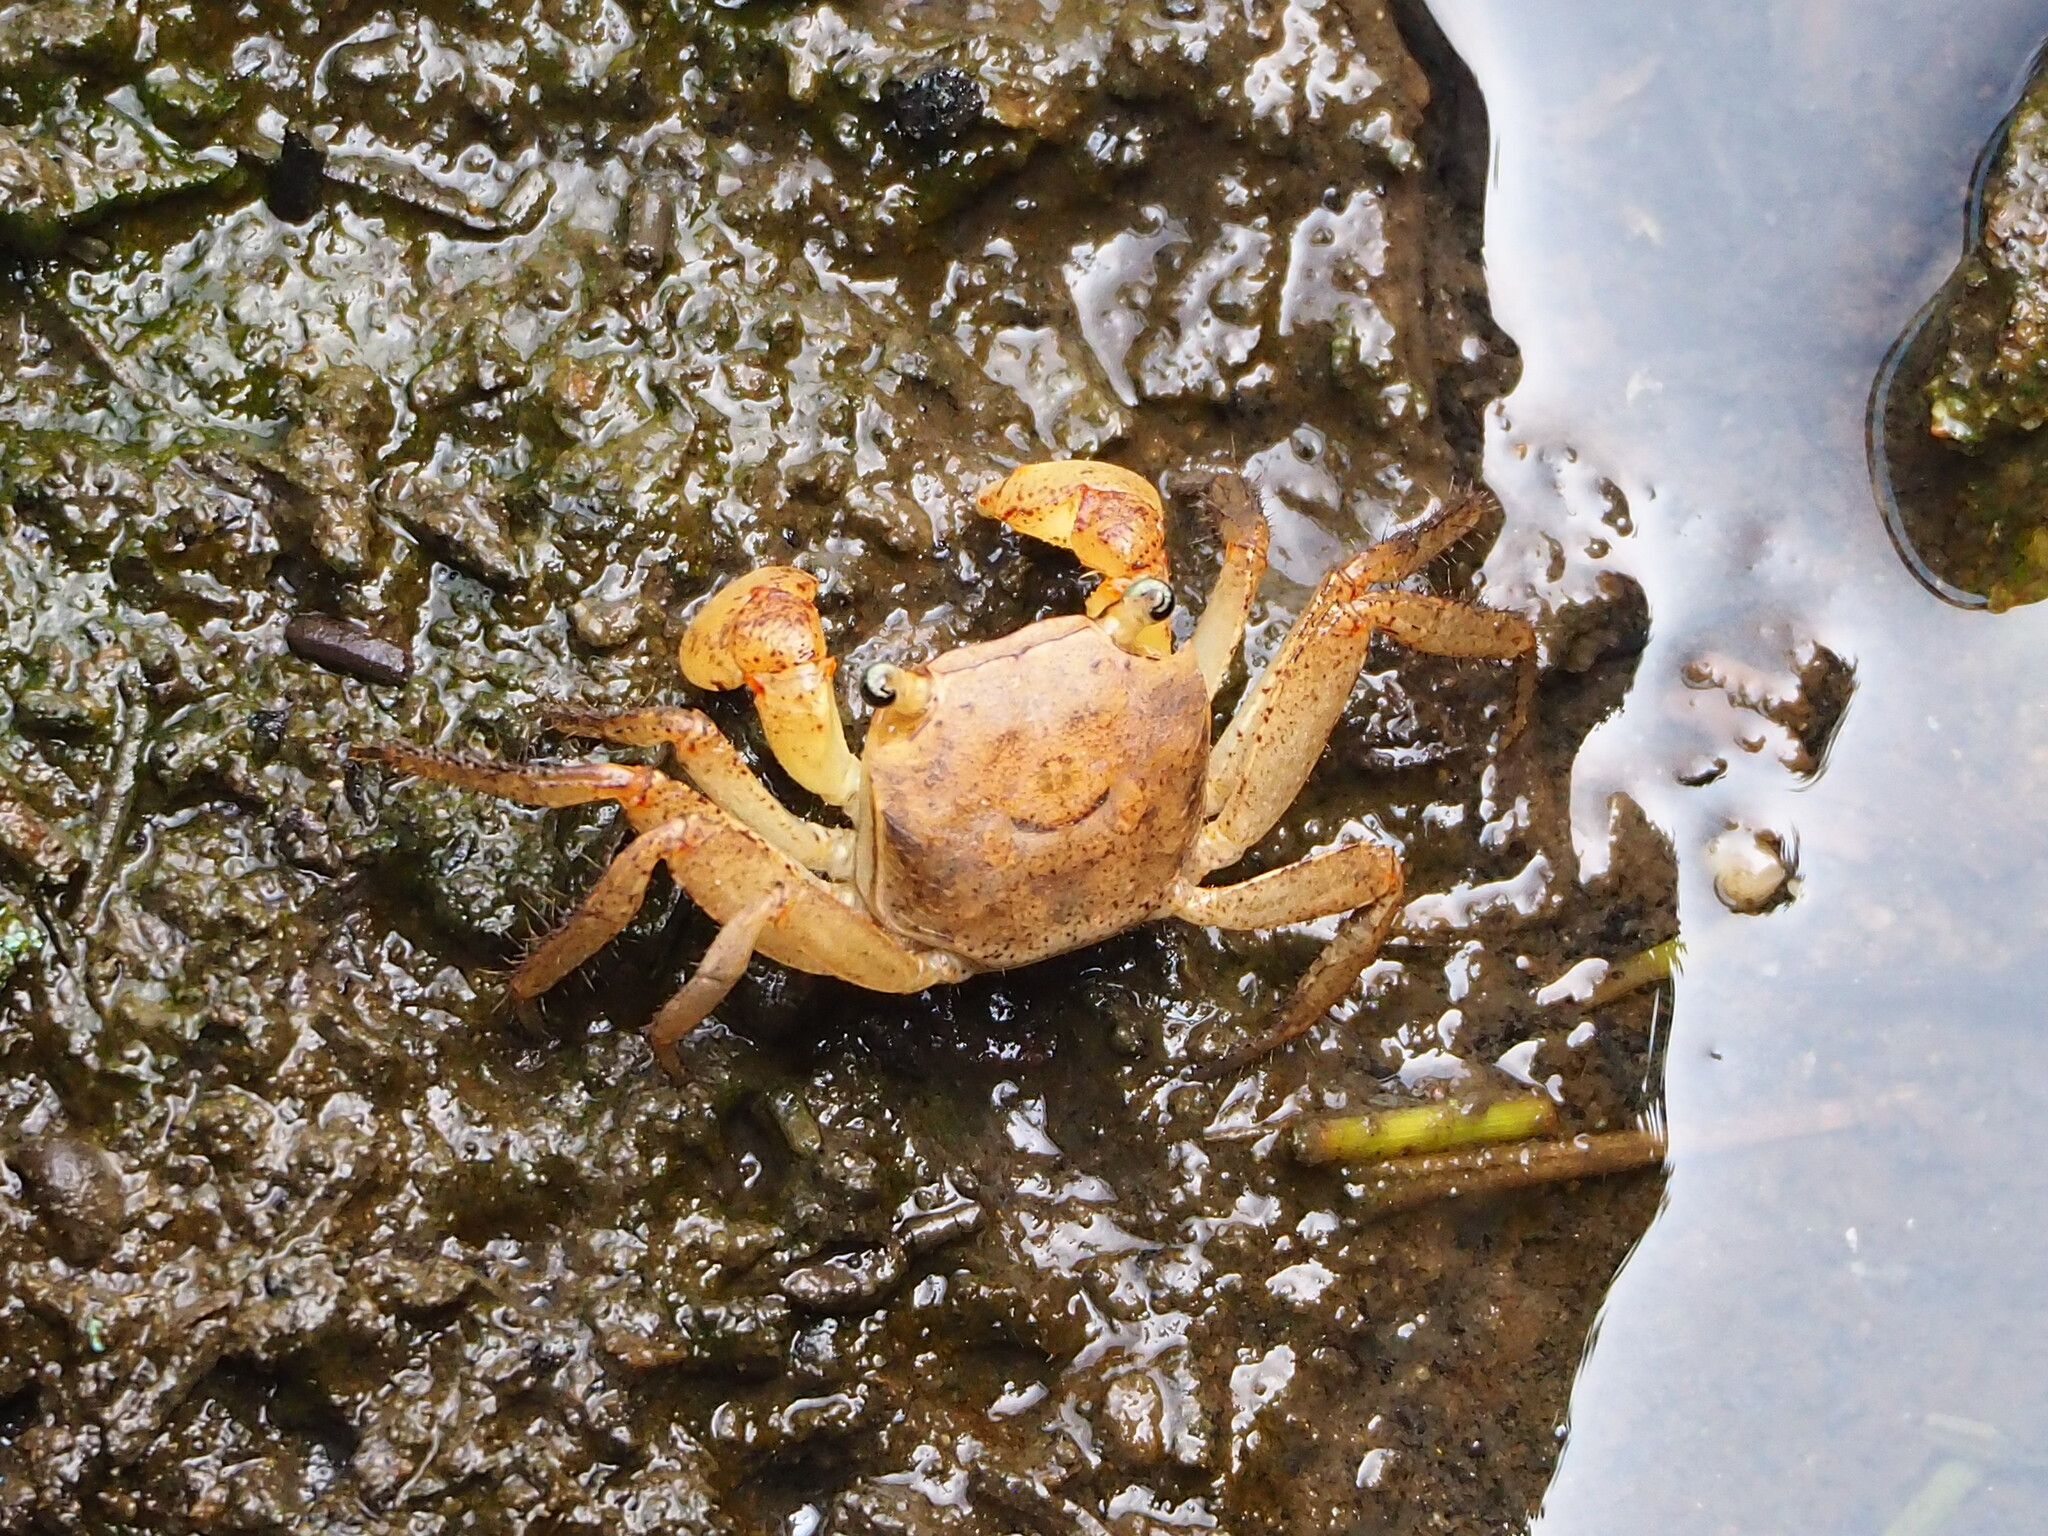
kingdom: Animalia
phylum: Arthropoda
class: Malacostraca
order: Decapoda
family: Sesarmidae
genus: Chiromantes
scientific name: Chiromantes haematocheir
